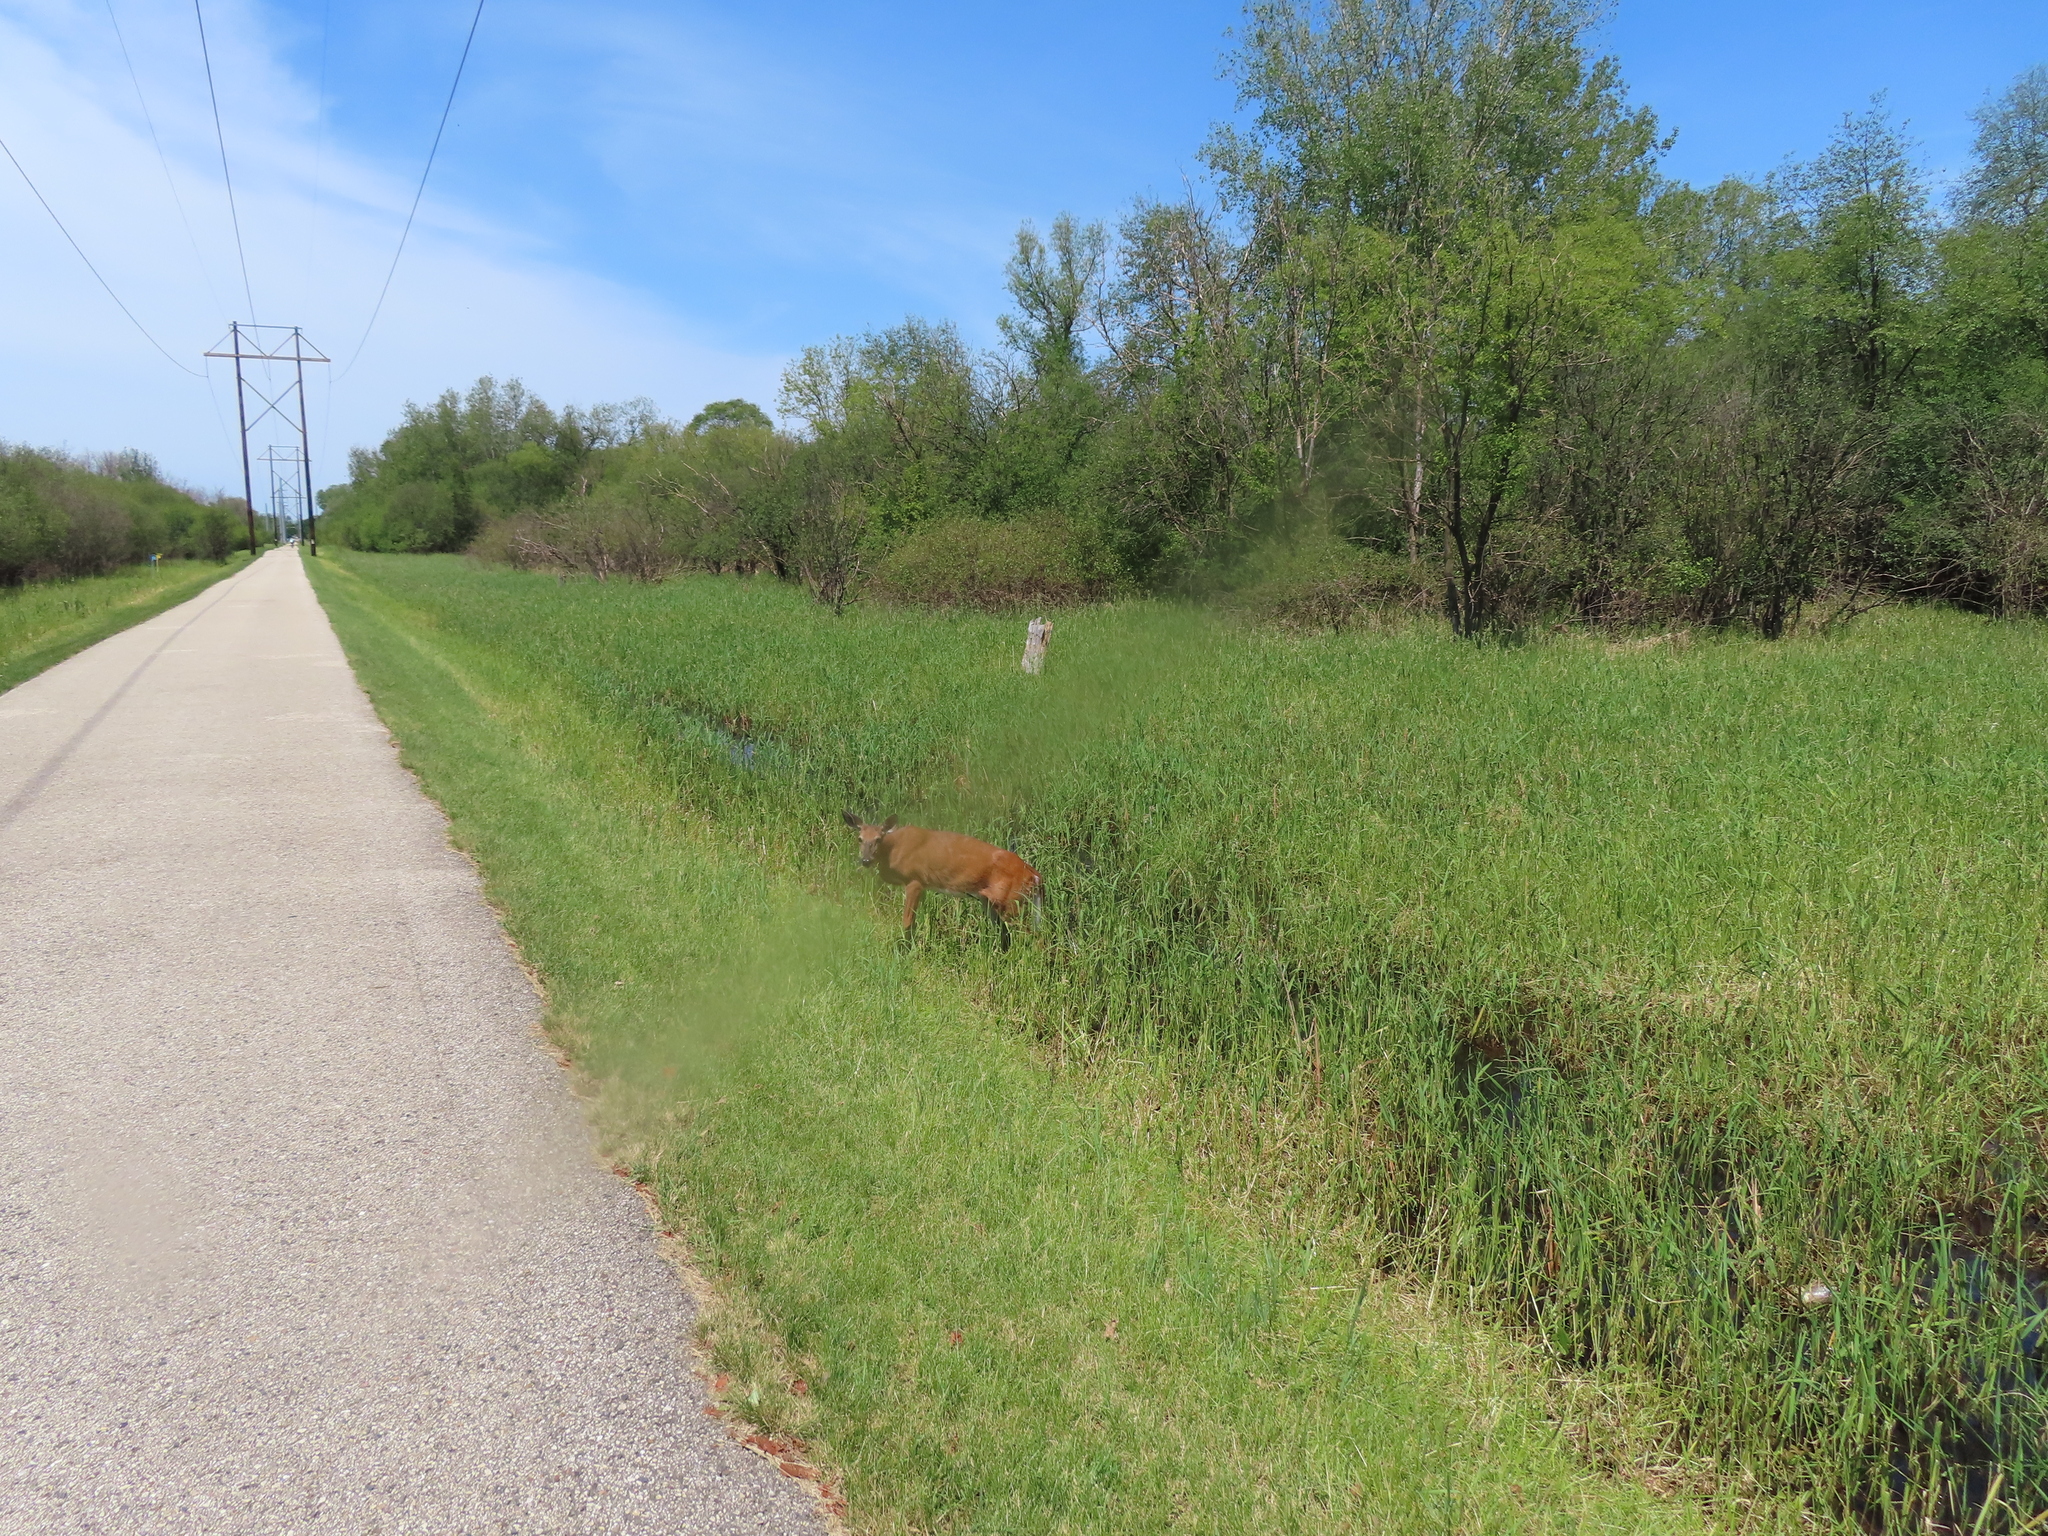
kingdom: Animalia
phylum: Chordata
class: Mammalia
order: Artiodactyla
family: Cervidae
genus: Odocoileus
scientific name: Odocoileus virginianus
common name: White-tailed deer
